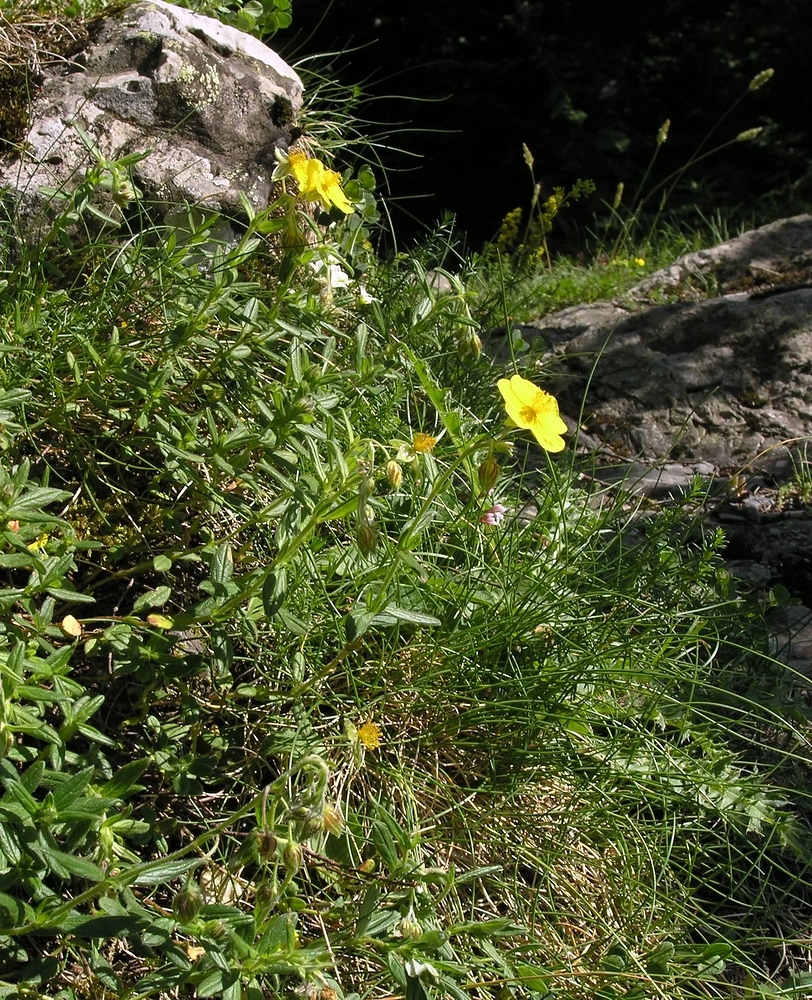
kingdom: Plantae
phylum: Tracheophyta
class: Magnoliopsida
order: Malvales
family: Cistaceae
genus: Helianthemum
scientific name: Helianthemum nummularium
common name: Common rock-rose
